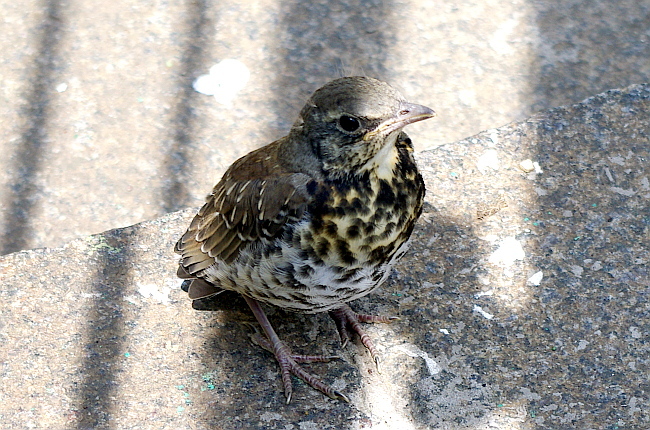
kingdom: Animalia
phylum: Chordata
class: Aves
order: Passeriformes
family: Turdidae
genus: Turdus
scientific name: Turdus pilaris
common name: Fieldfare
